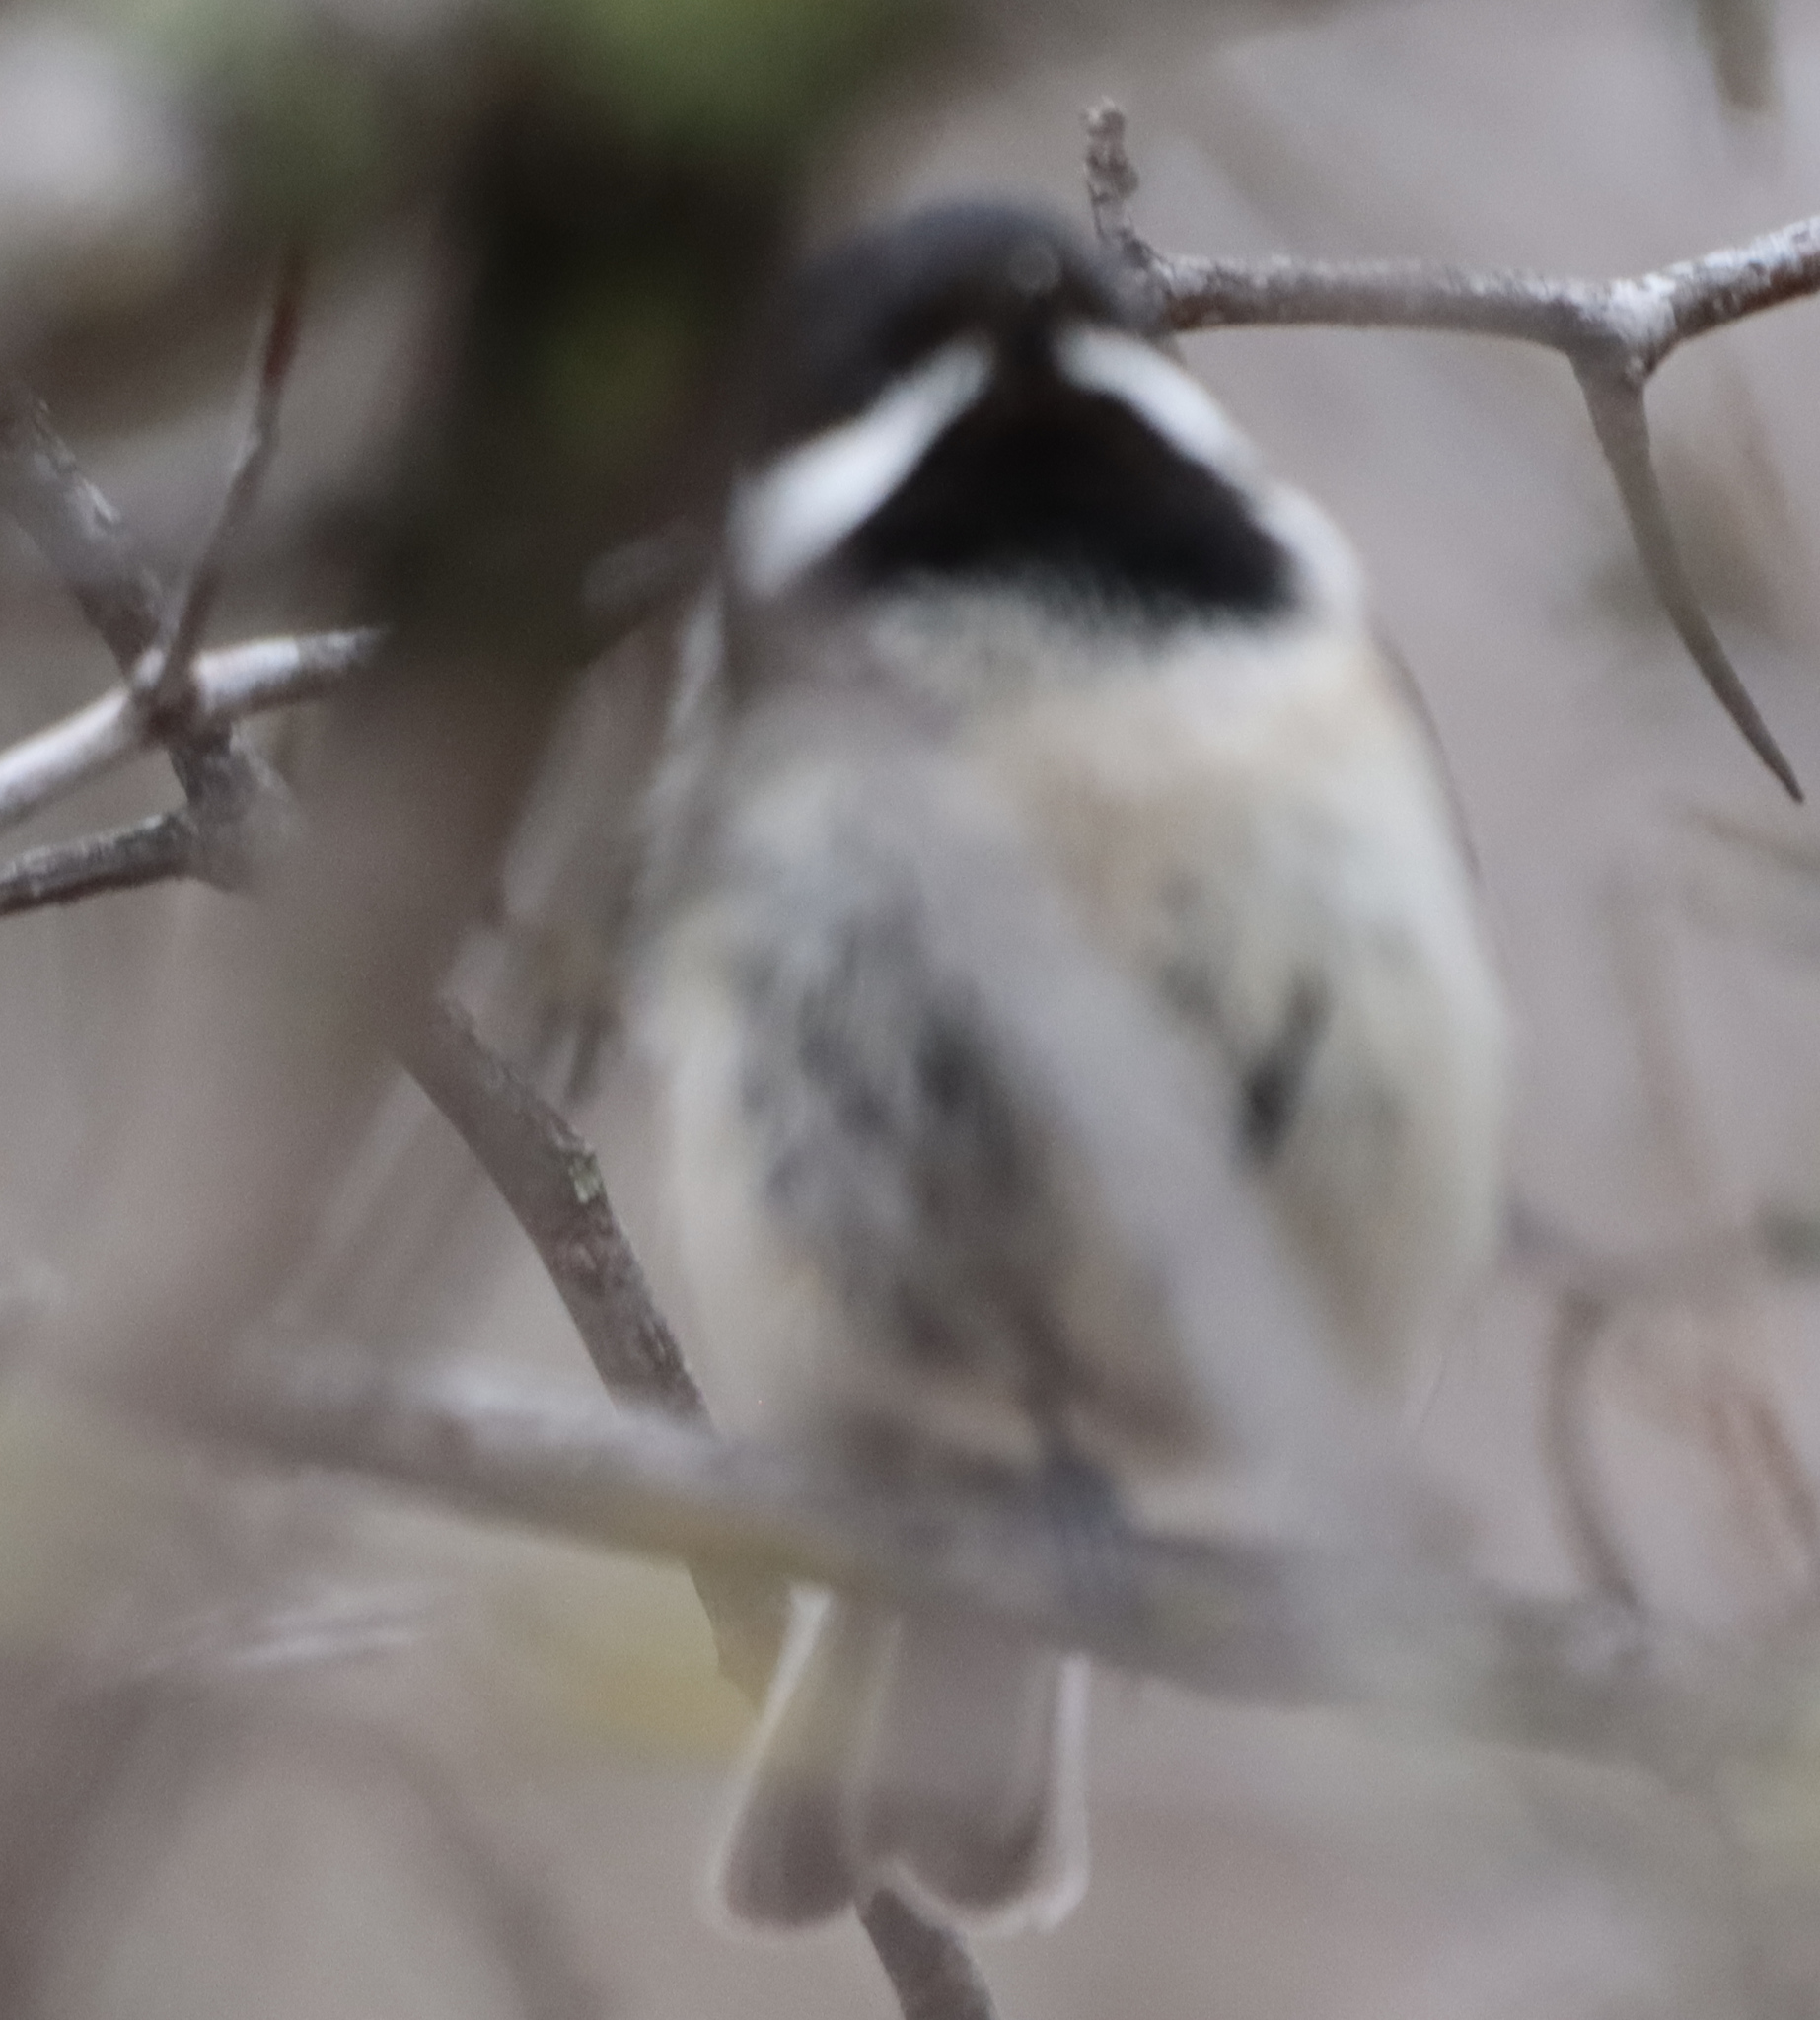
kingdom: Animalia
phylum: Chordata
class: Aves
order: Passeriformes
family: Paridae
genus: Poecile
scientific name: Poecile atricapillus
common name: Black-capped chickadee
